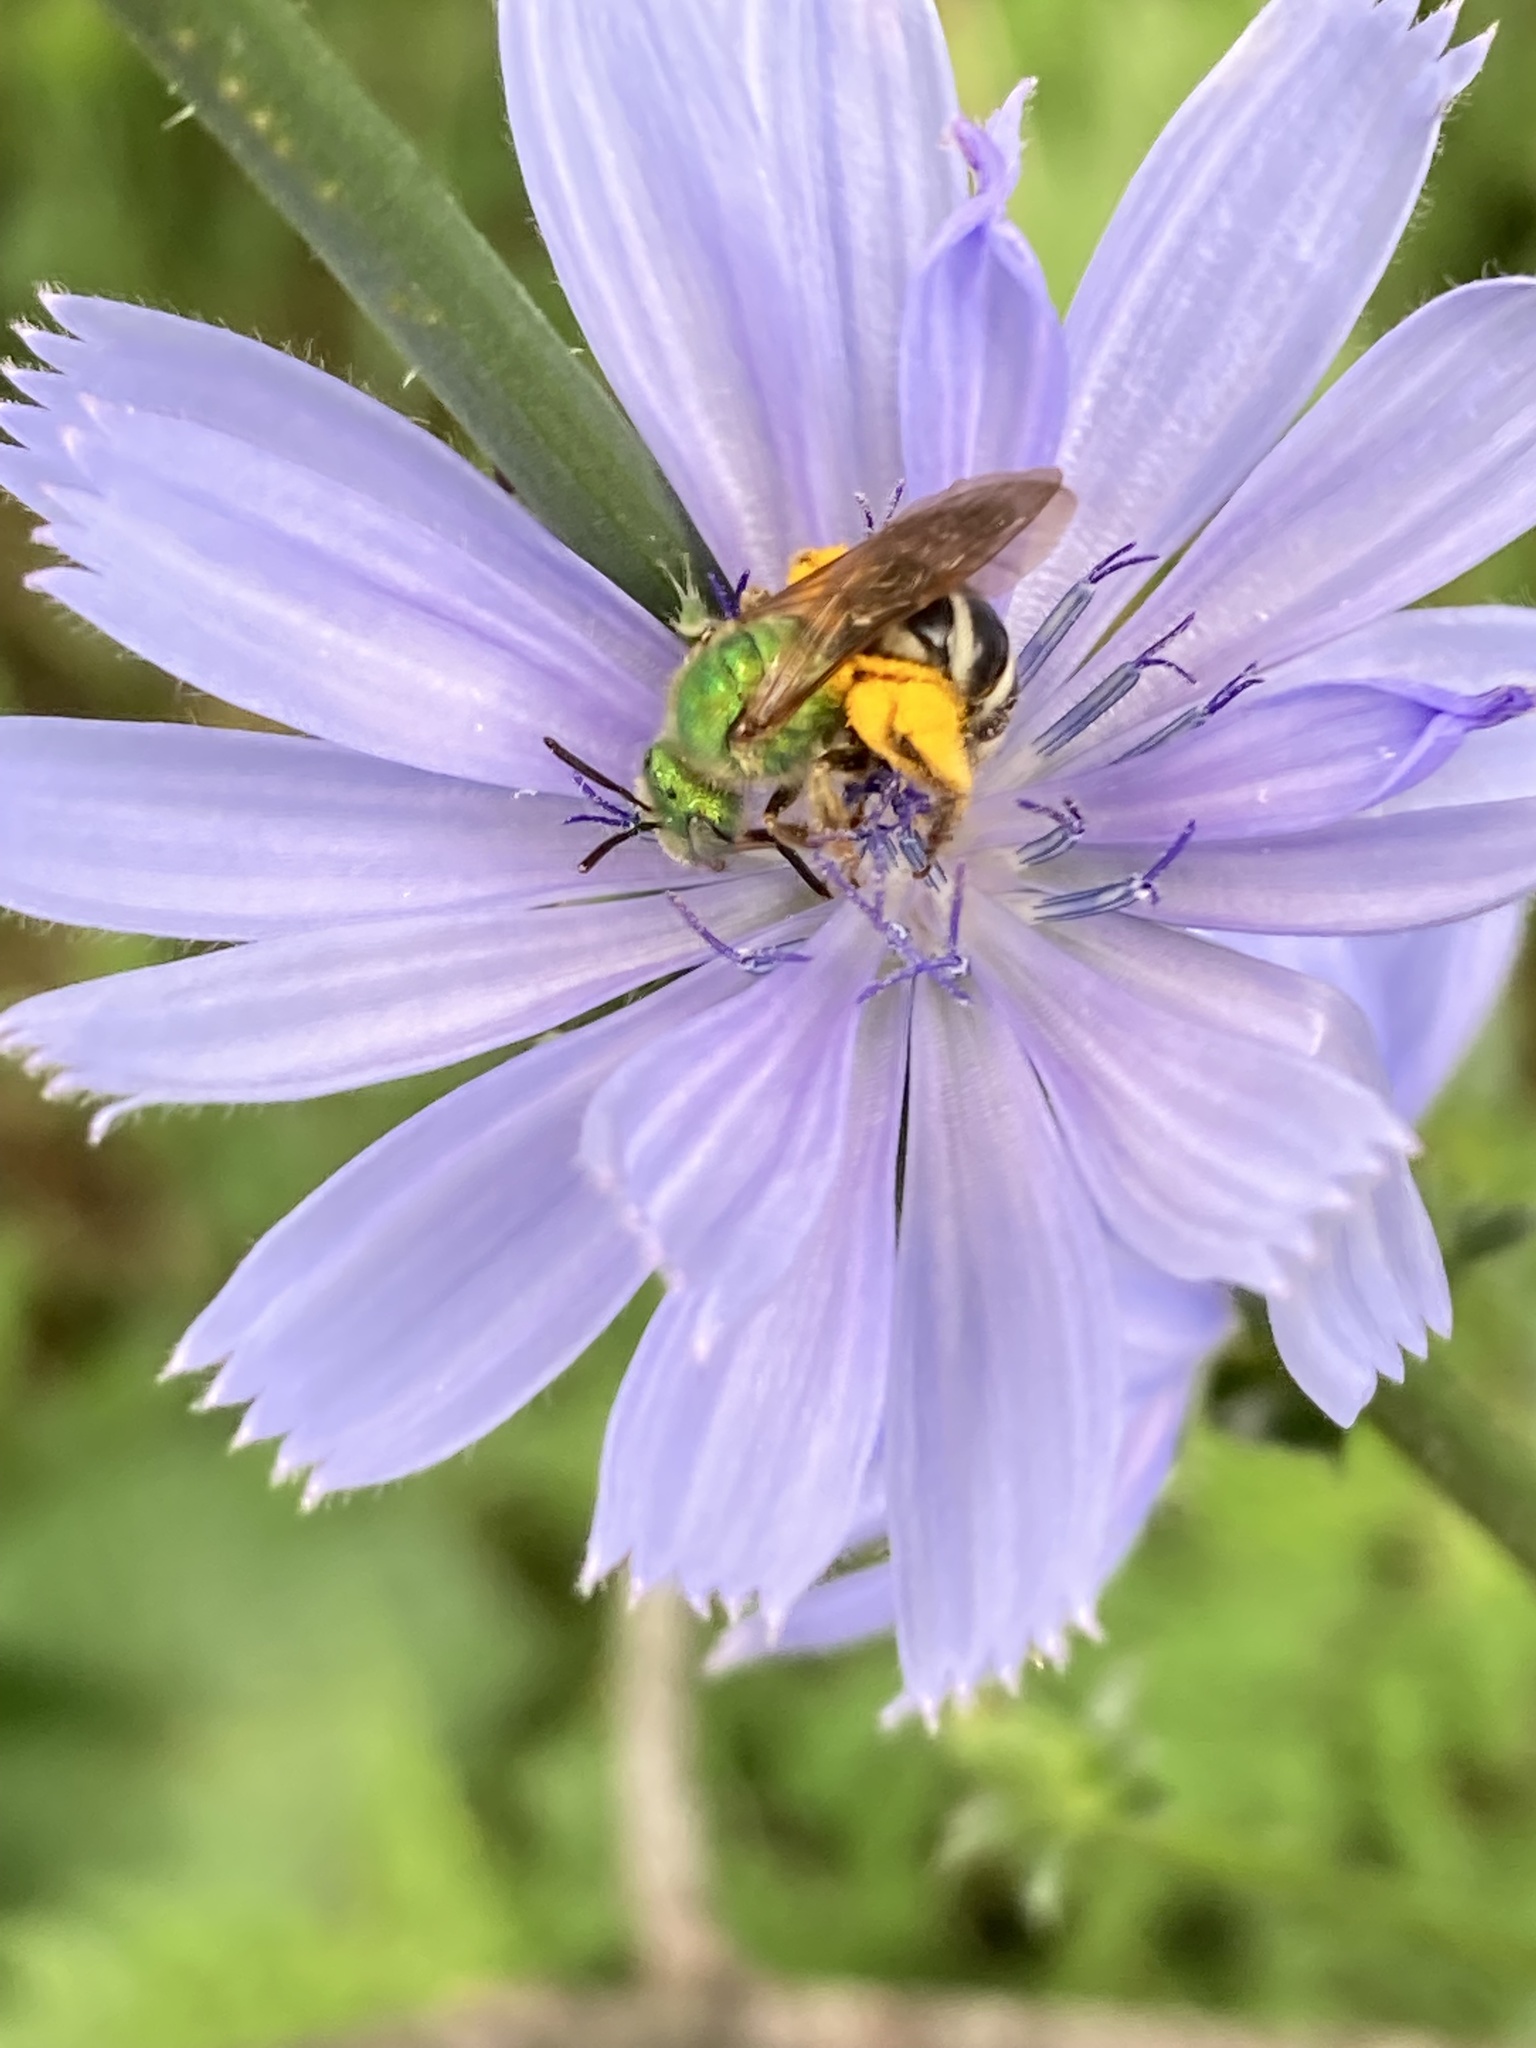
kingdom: Animalia
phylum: Arthropoda
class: Insecta
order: Hymenoptera
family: Halictidae
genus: Agapostemon
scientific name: Agapostemon virescens
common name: Bicolored striped sweat bee
